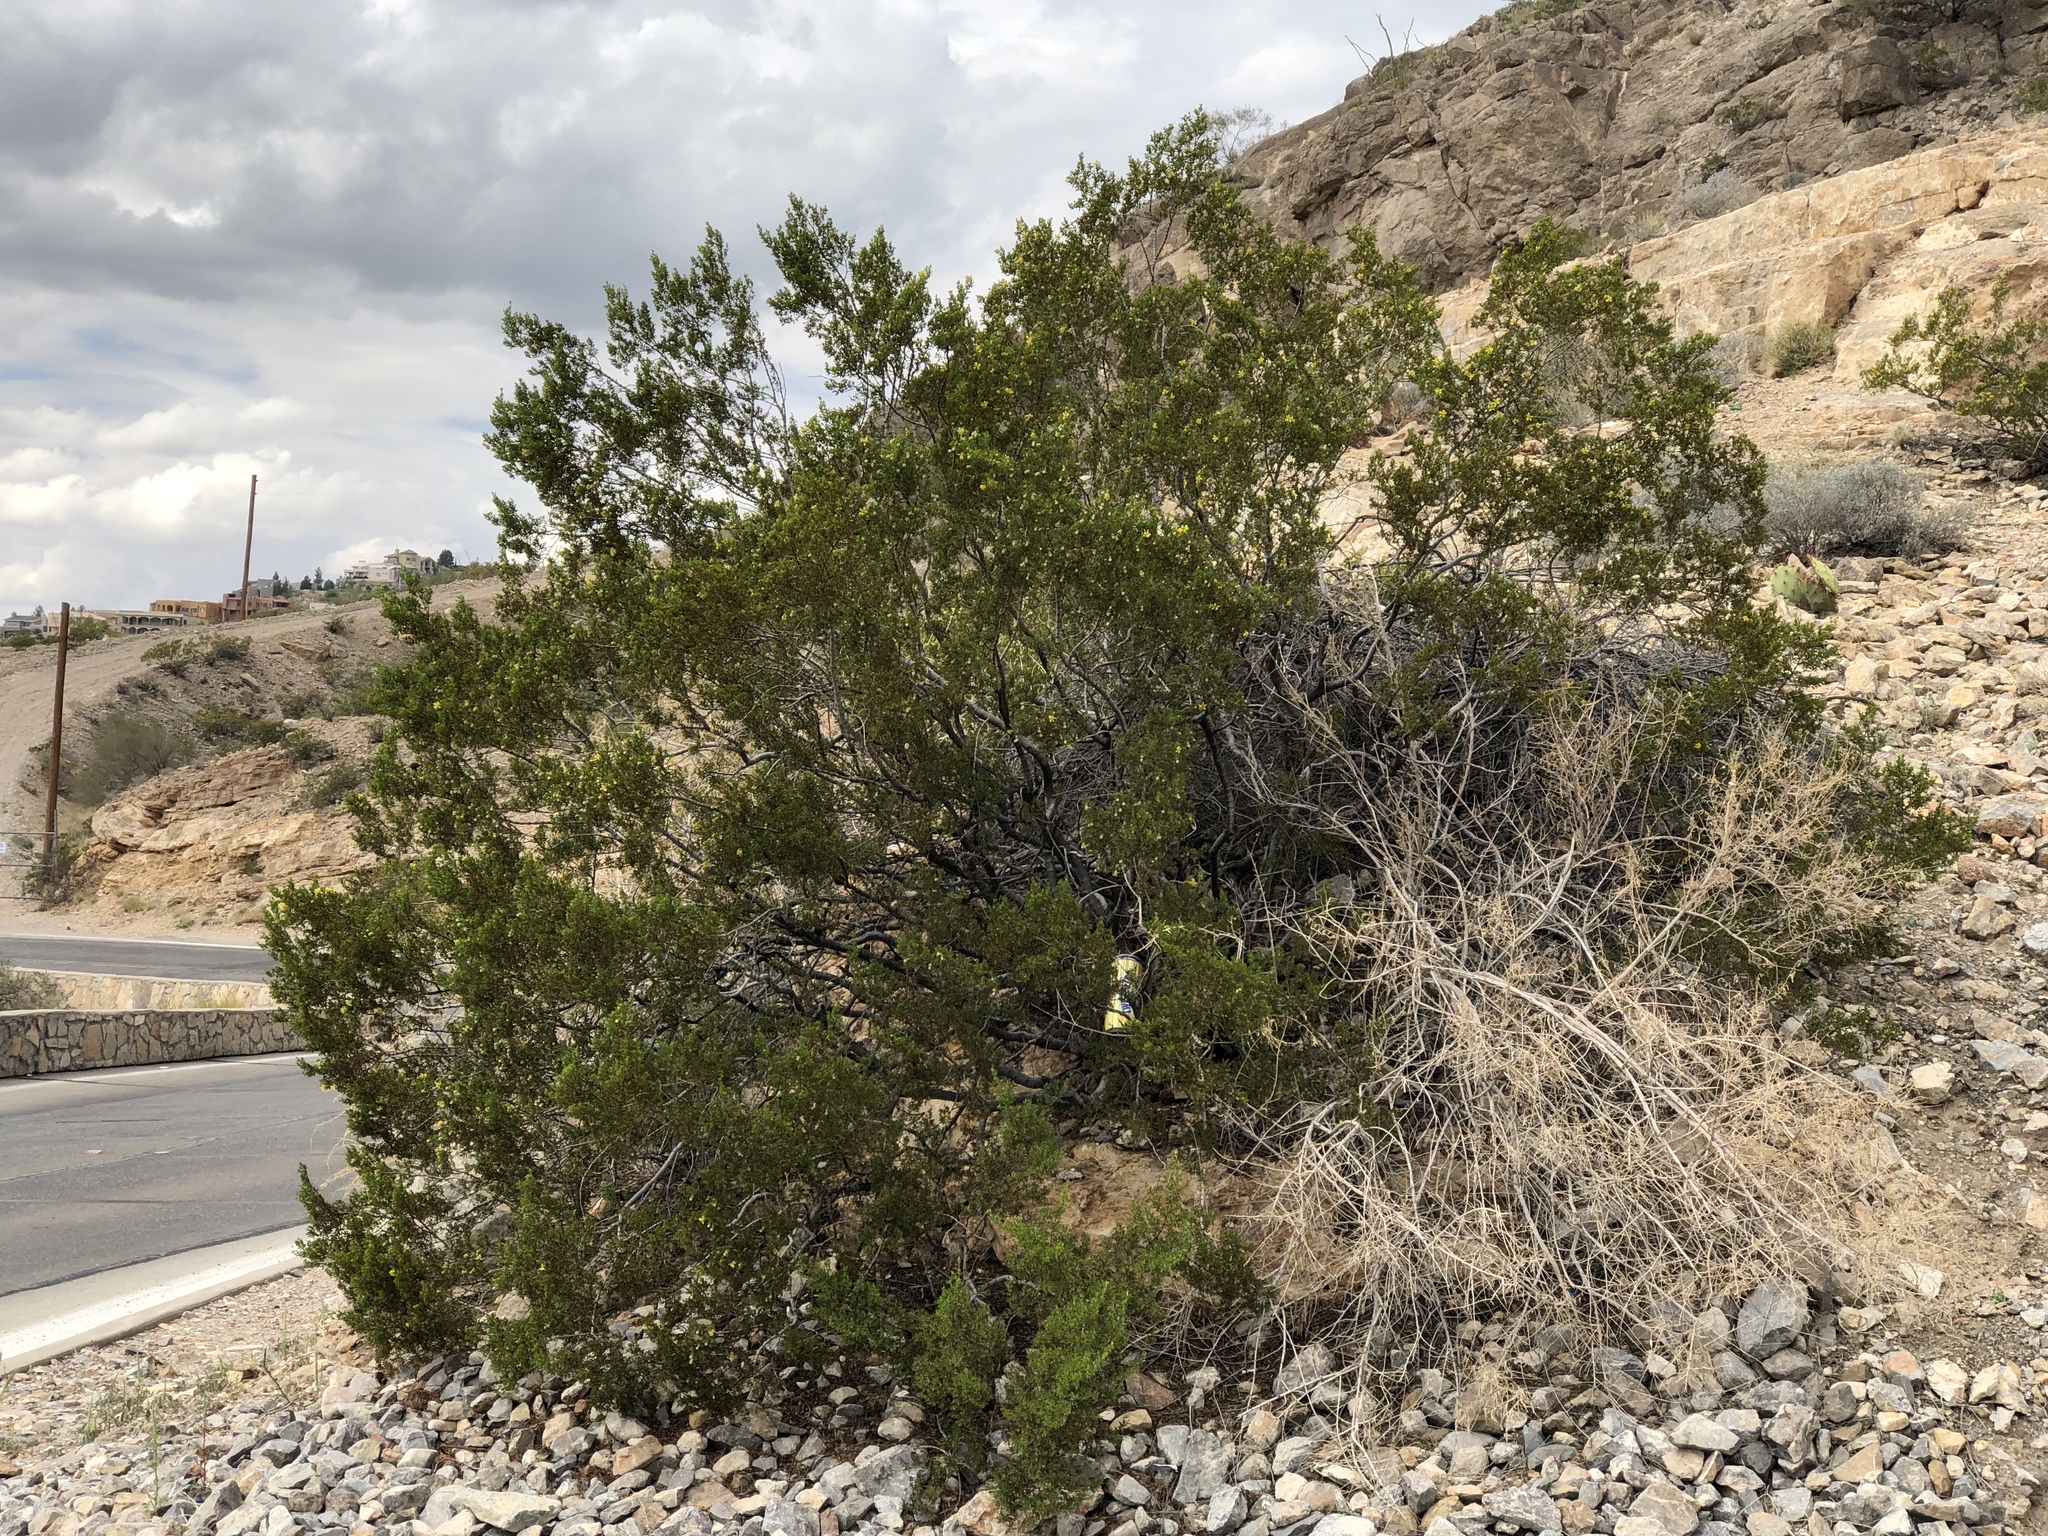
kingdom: Plantae
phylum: Tracheophyta
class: Magnoliopsida
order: Zygophyllales
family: Zygophyllaceae
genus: Larrea
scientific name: Larrea tridentata
